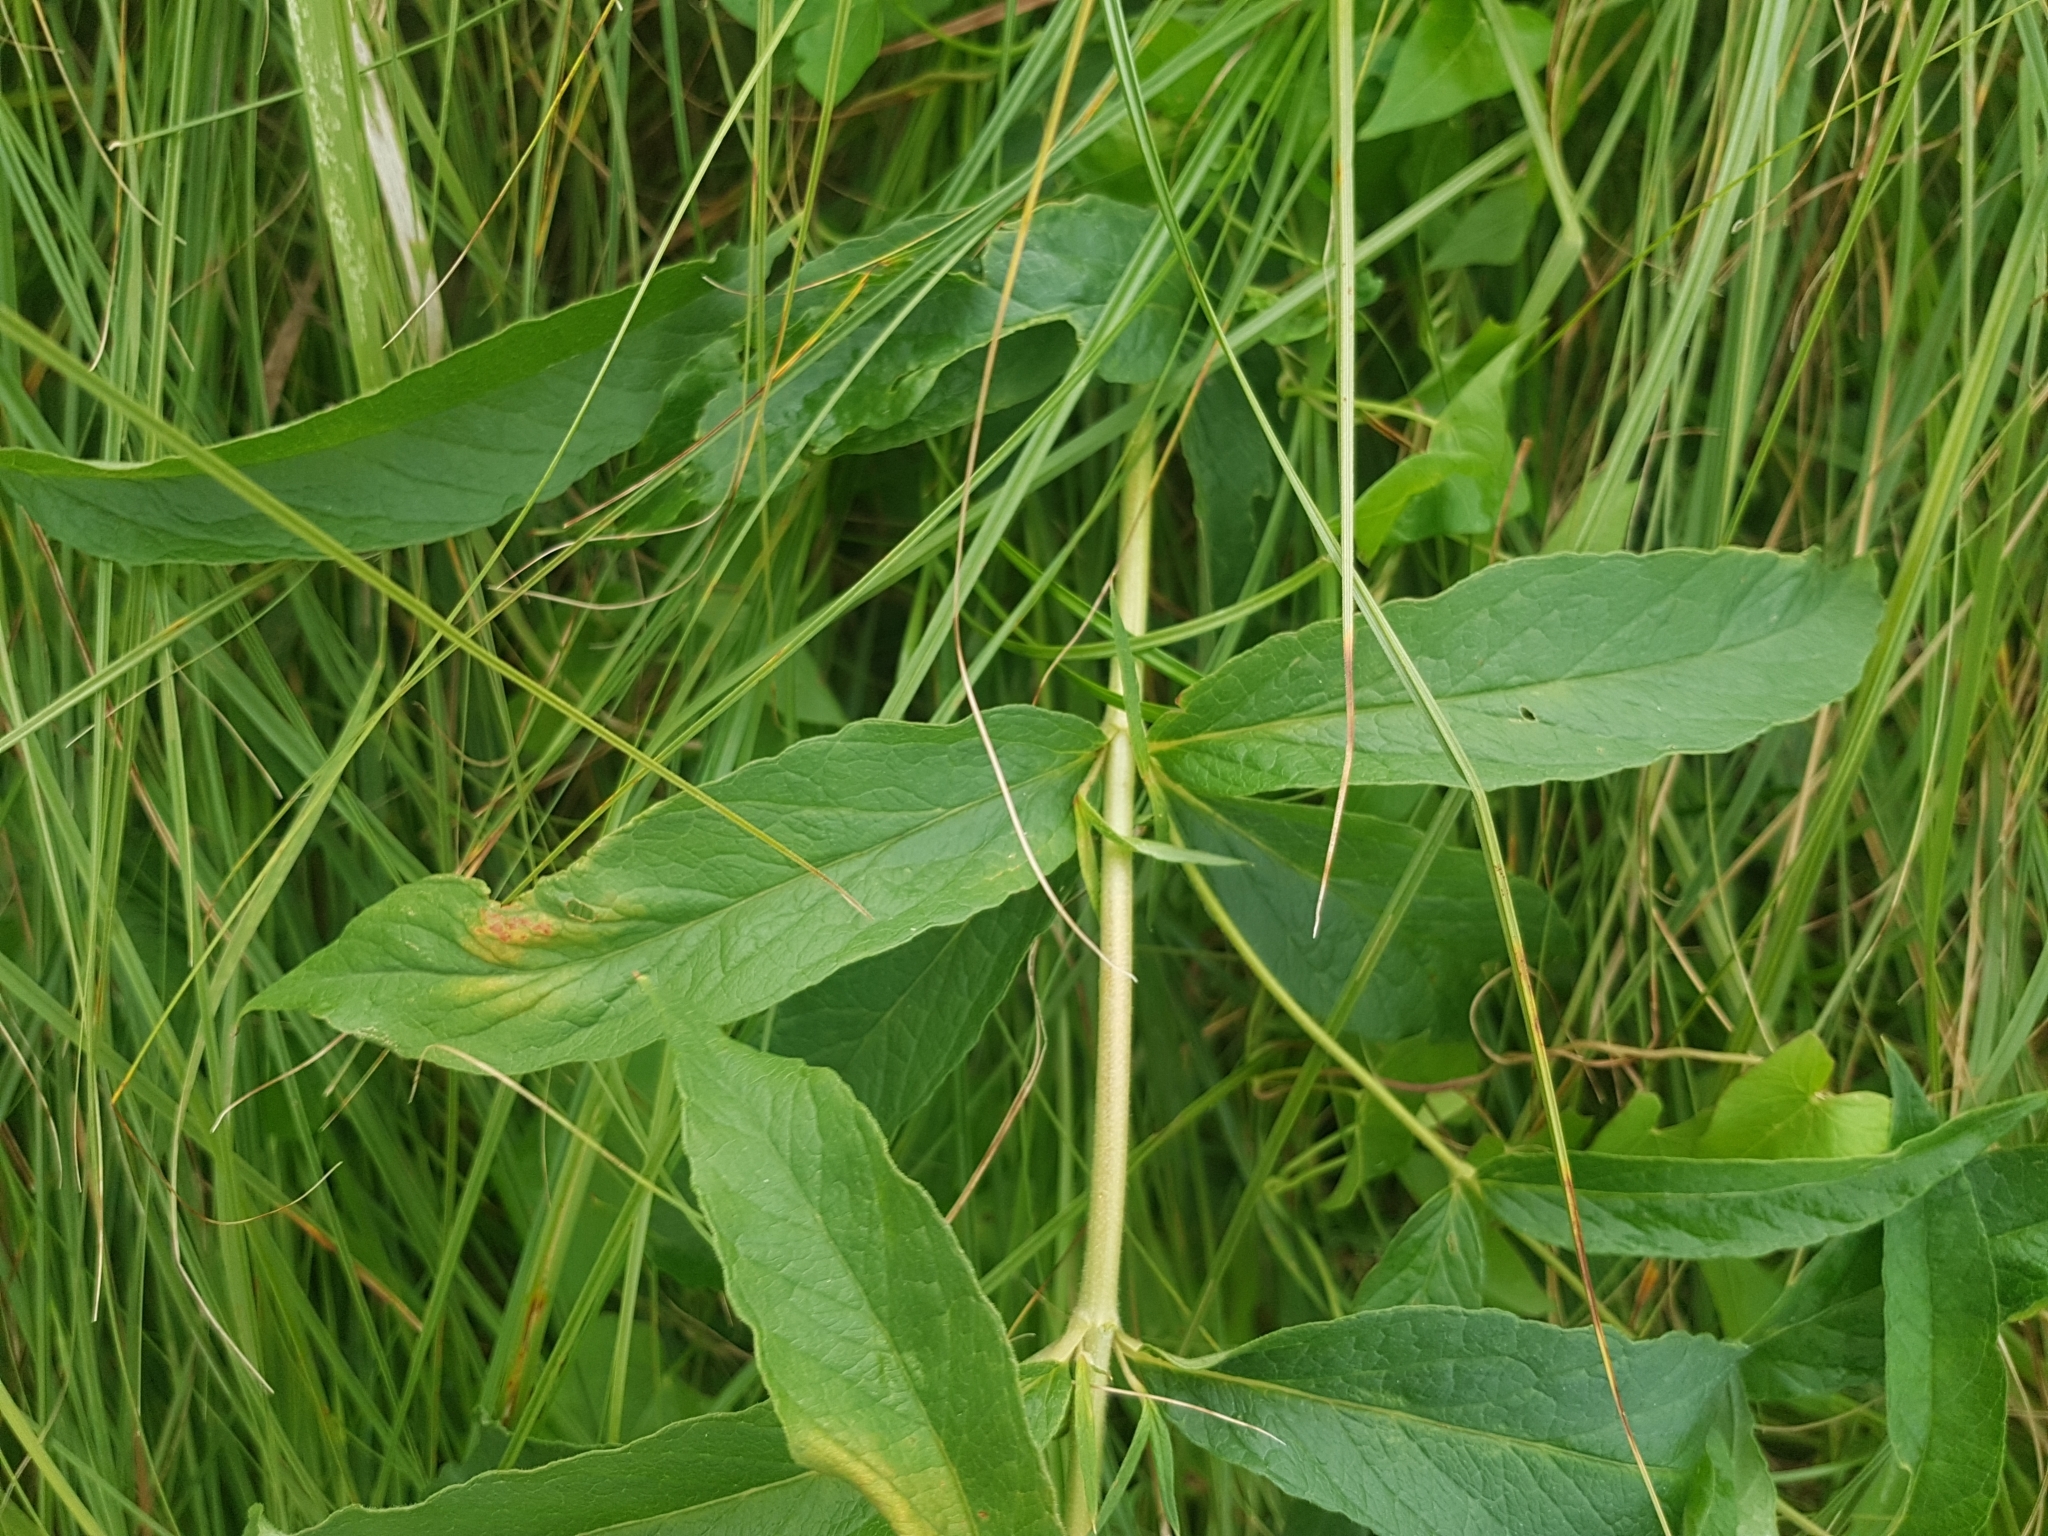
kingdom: Plantae
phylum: Tracheophyta
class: Magnoliopsida
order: Ericales
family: Primulaceae
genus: Lysimachia
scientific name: Lysimachia vulgaris
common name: Yellow loosestrife
